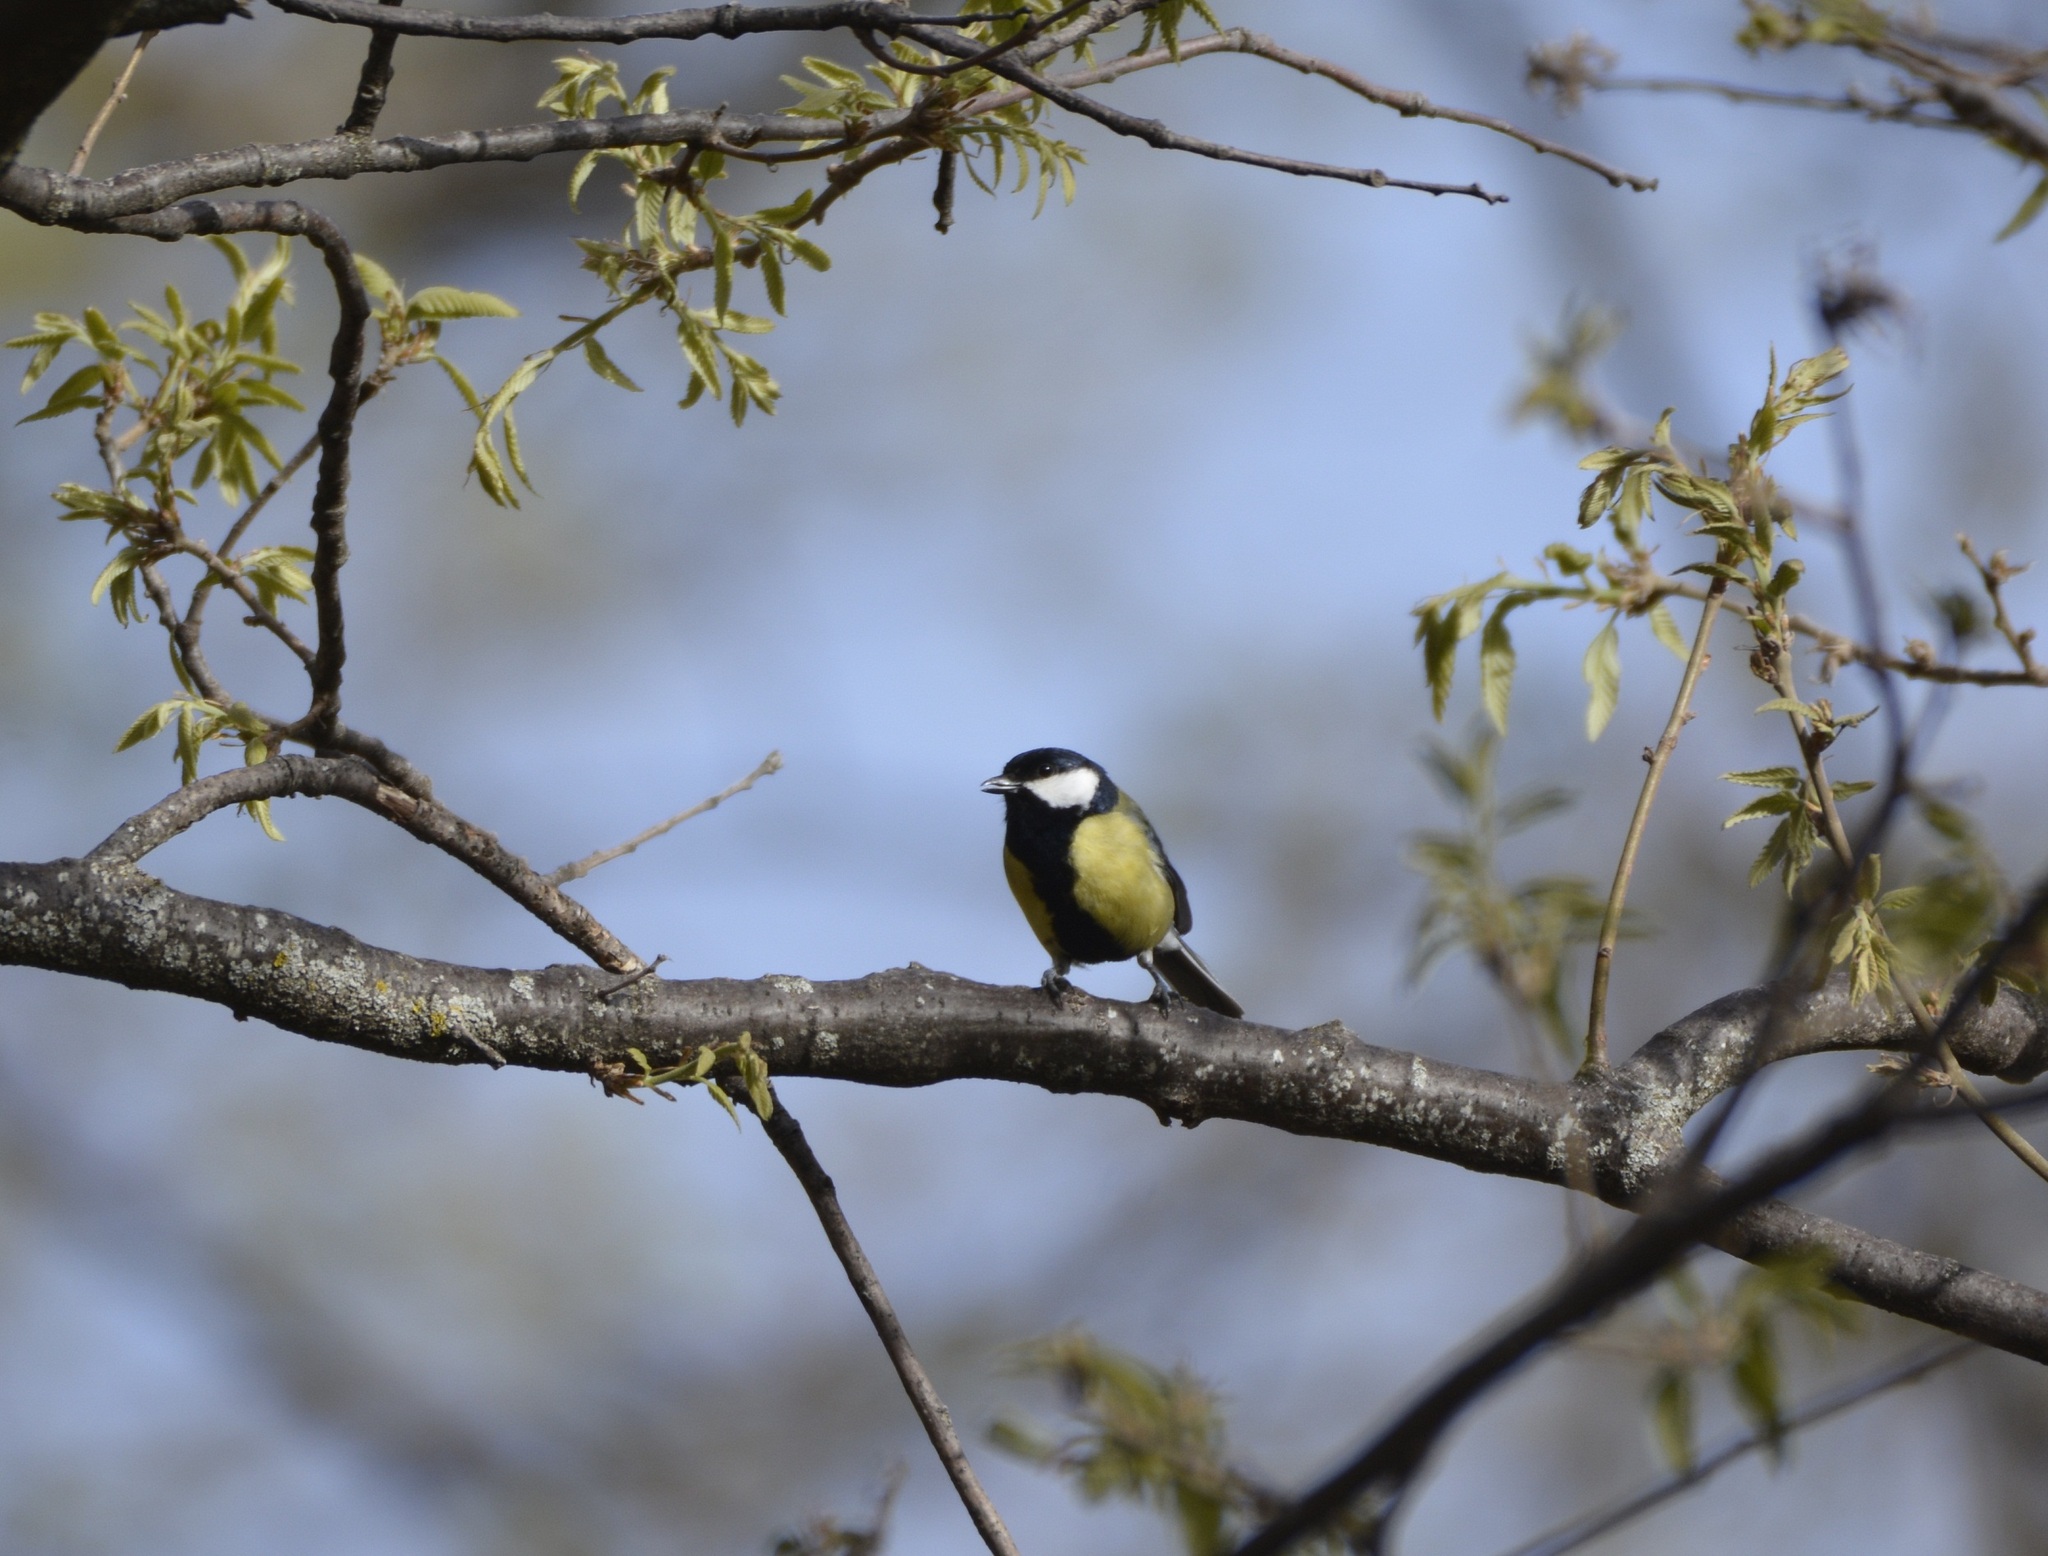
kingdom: Animalia
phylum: Chordata
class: Aves
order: Passeriformes
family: Paridae
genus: Parus
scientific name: Parus major
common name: Great tit
